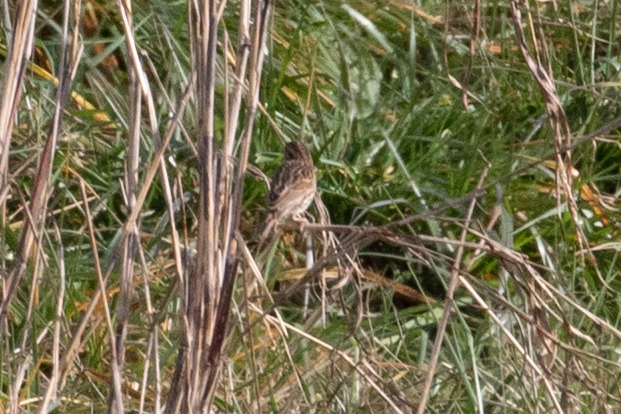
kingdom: Animalia
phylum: Chordata
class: Aves
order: Passeriformes
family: Passerellidae
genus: Passerculus
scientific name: Passerculus sandwichensis
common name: Savannah sparrow
